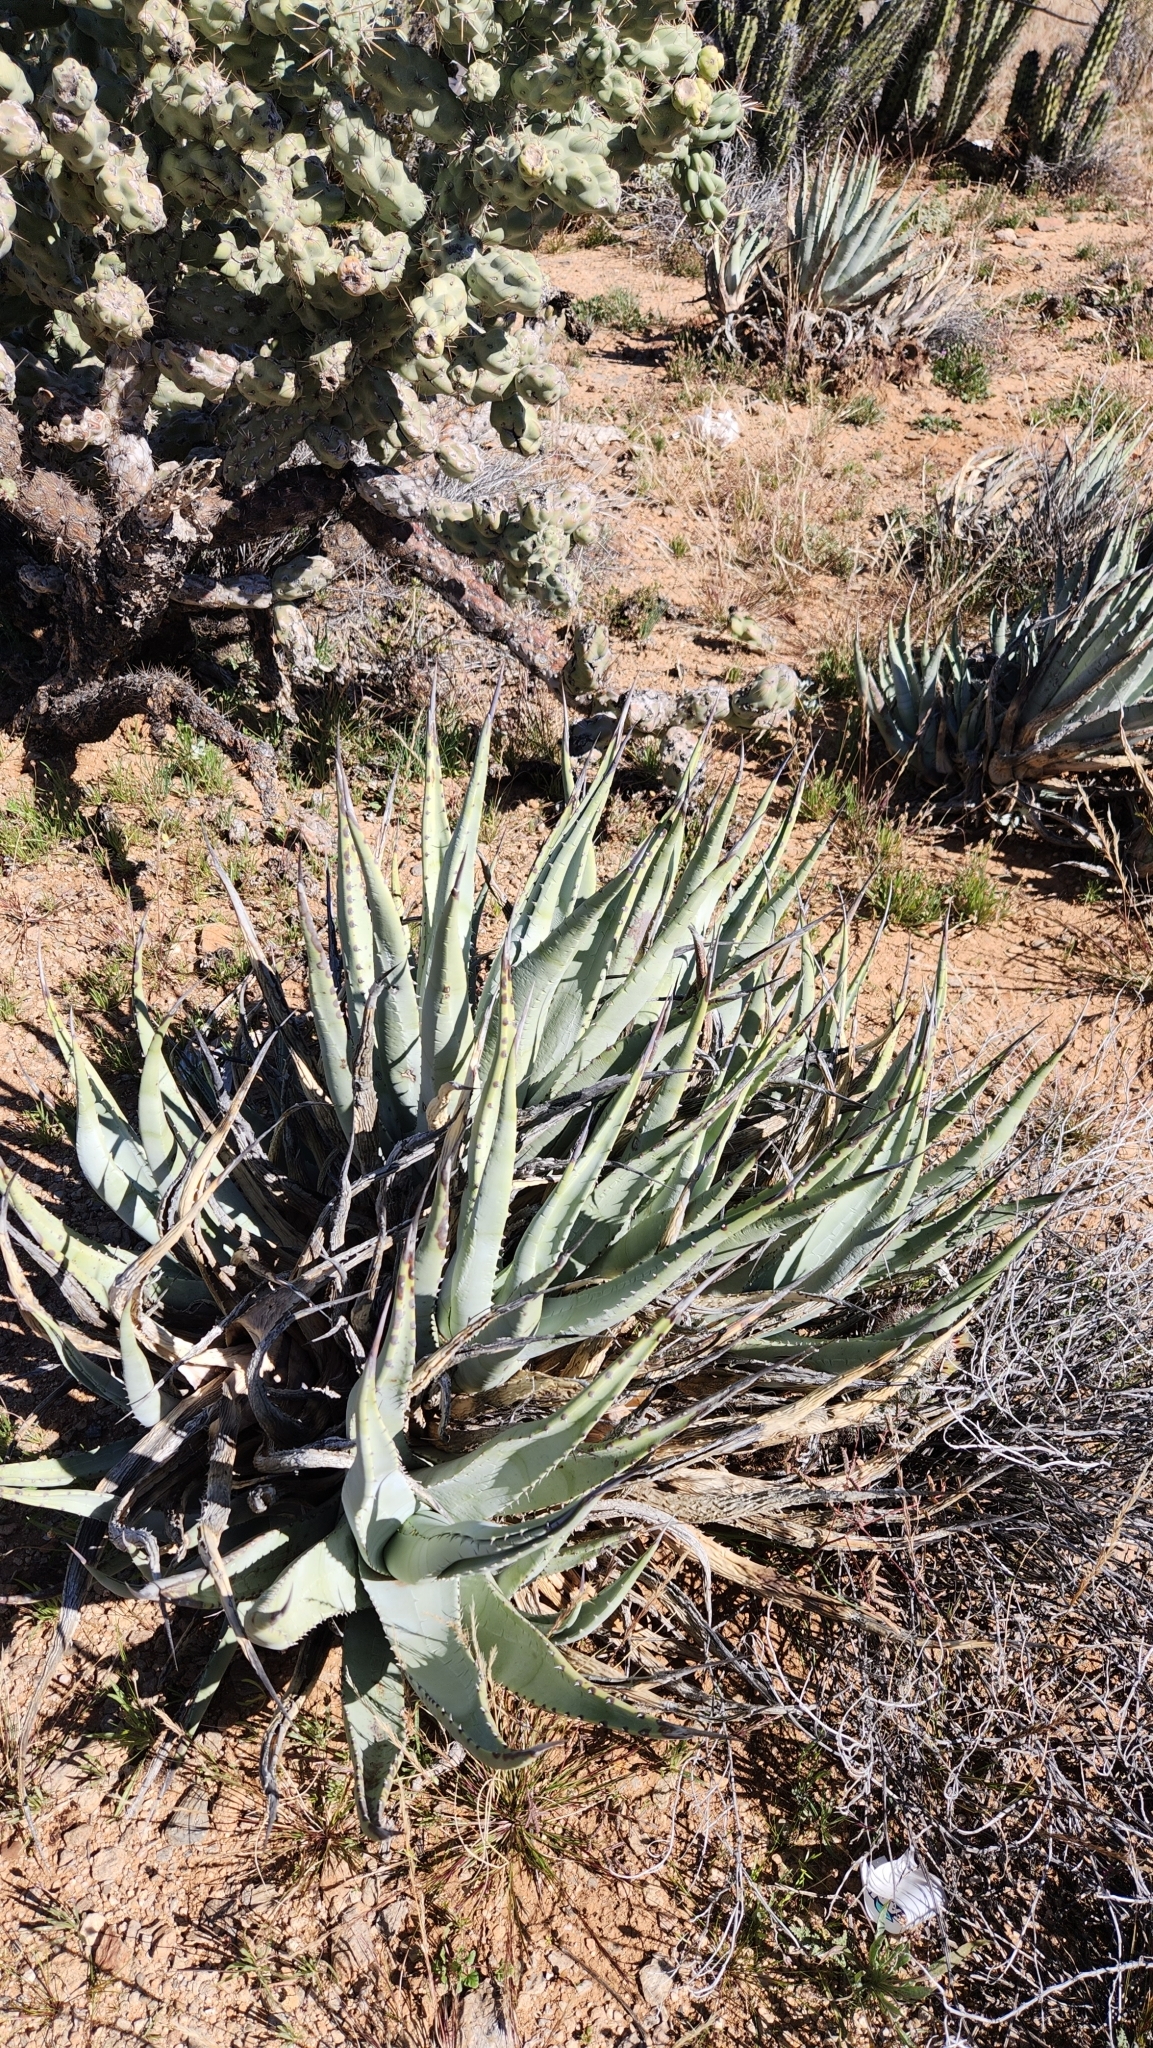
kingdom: Plantae
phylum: Tracheophyta
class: Liliopsida
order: Asparagales
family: Asparagaceae
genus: Agave
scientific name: Agave cerulata
